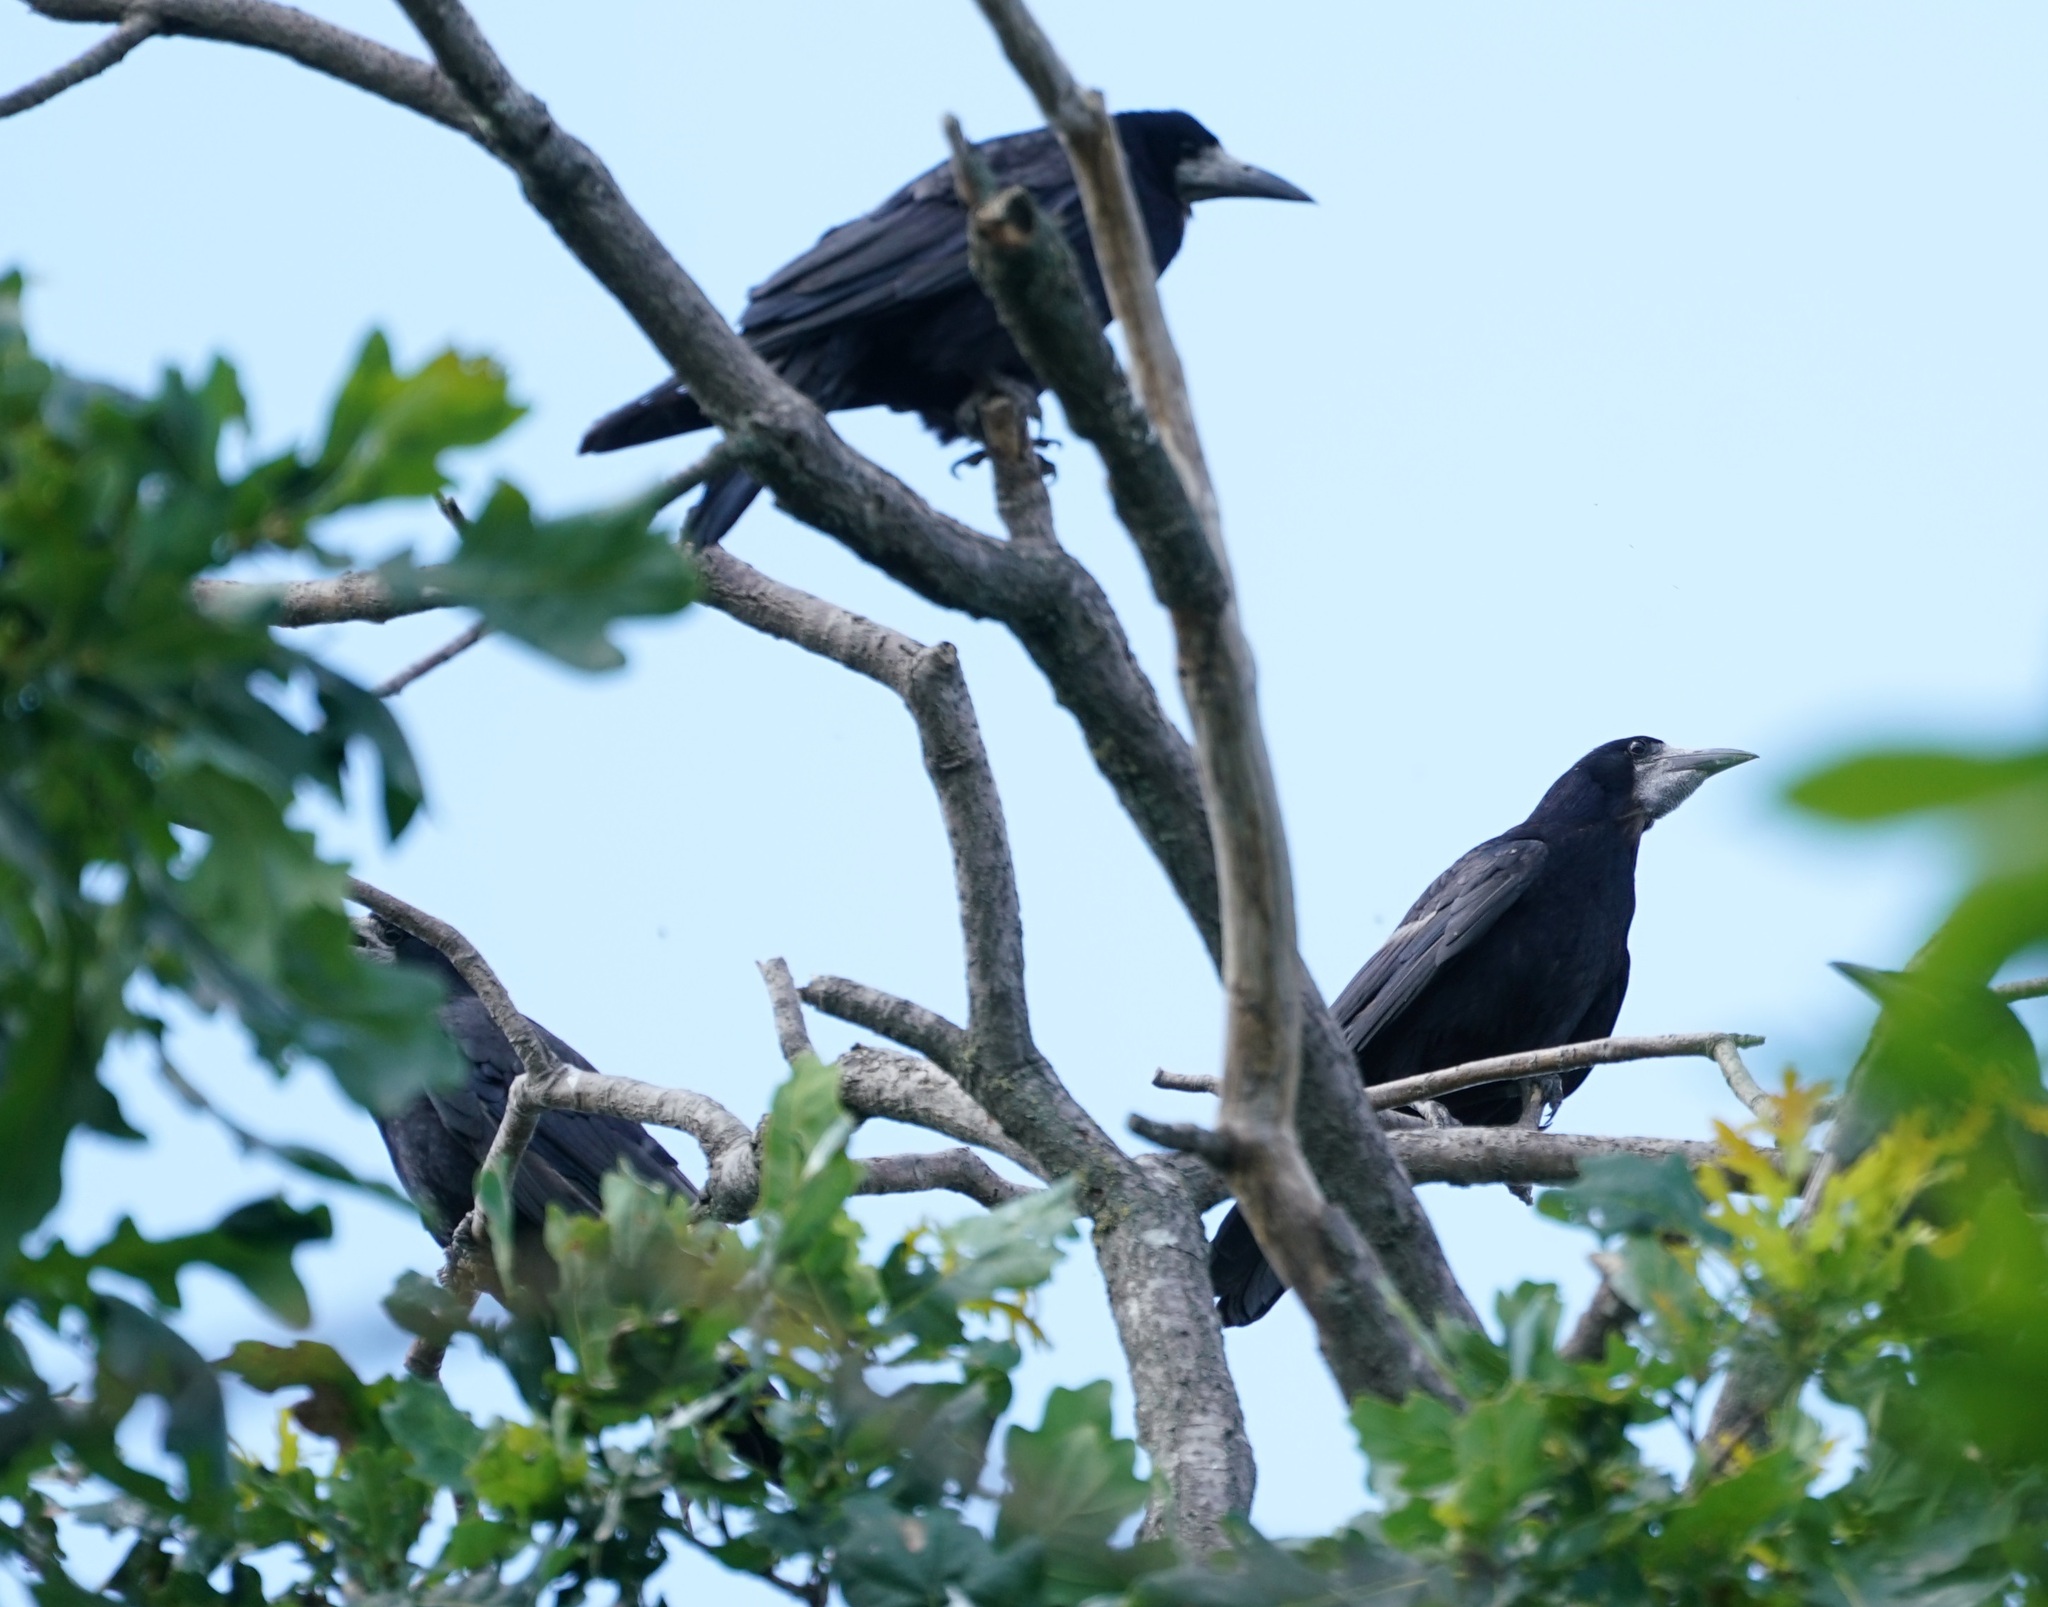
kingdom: Animalia
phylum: Chordata
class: Aves
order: Passeriformes
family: Corvidae
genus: Corvus
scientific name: Corvus frugilegus
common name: Rook
